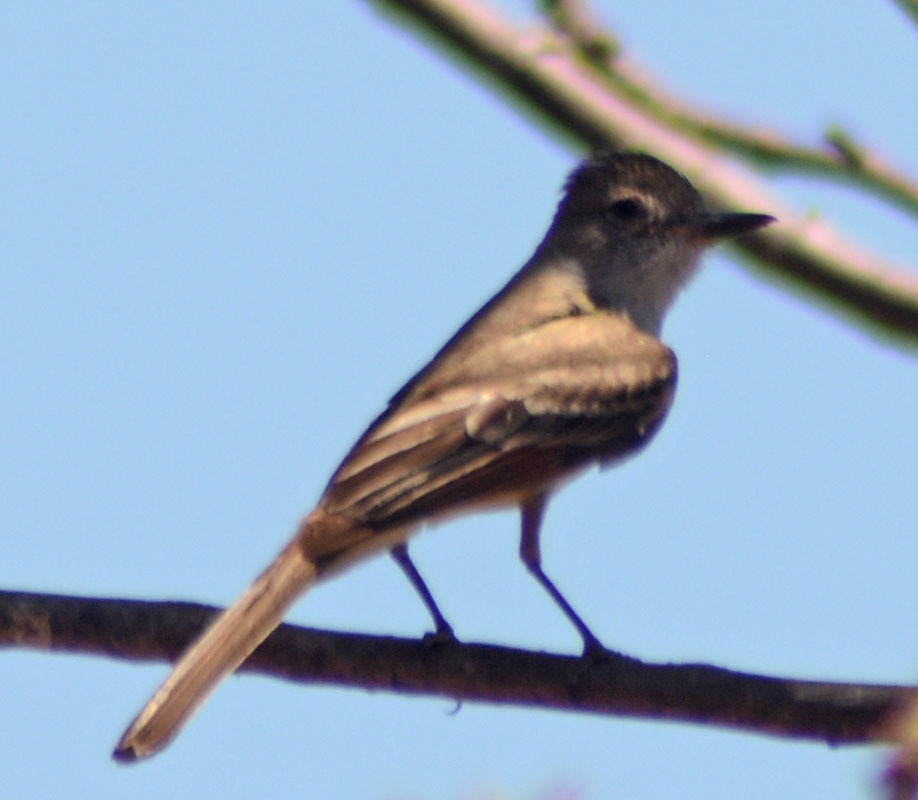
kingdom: Animalia
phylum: Chordata
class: Aves
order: Passeriformes
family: Tyrannidae
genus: Myiarchus
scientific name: Myiarchus cinerascens
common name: Ash-throated flycatcher
